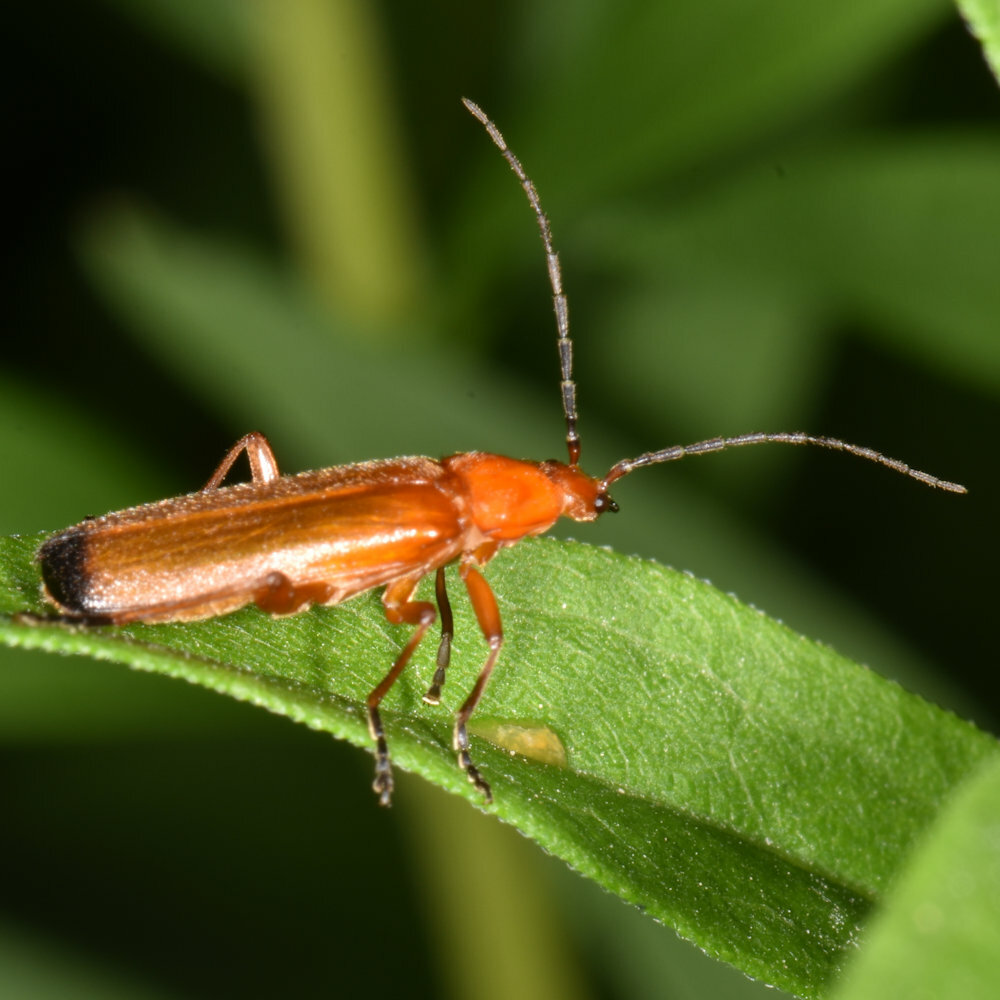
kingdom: Animalia
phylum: Arthropoda
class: Insecta
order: Coleoptera
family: Cantharidae
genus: Rhagonycha
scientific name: Rhagonycha fulva
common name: Common red soldier beetle
